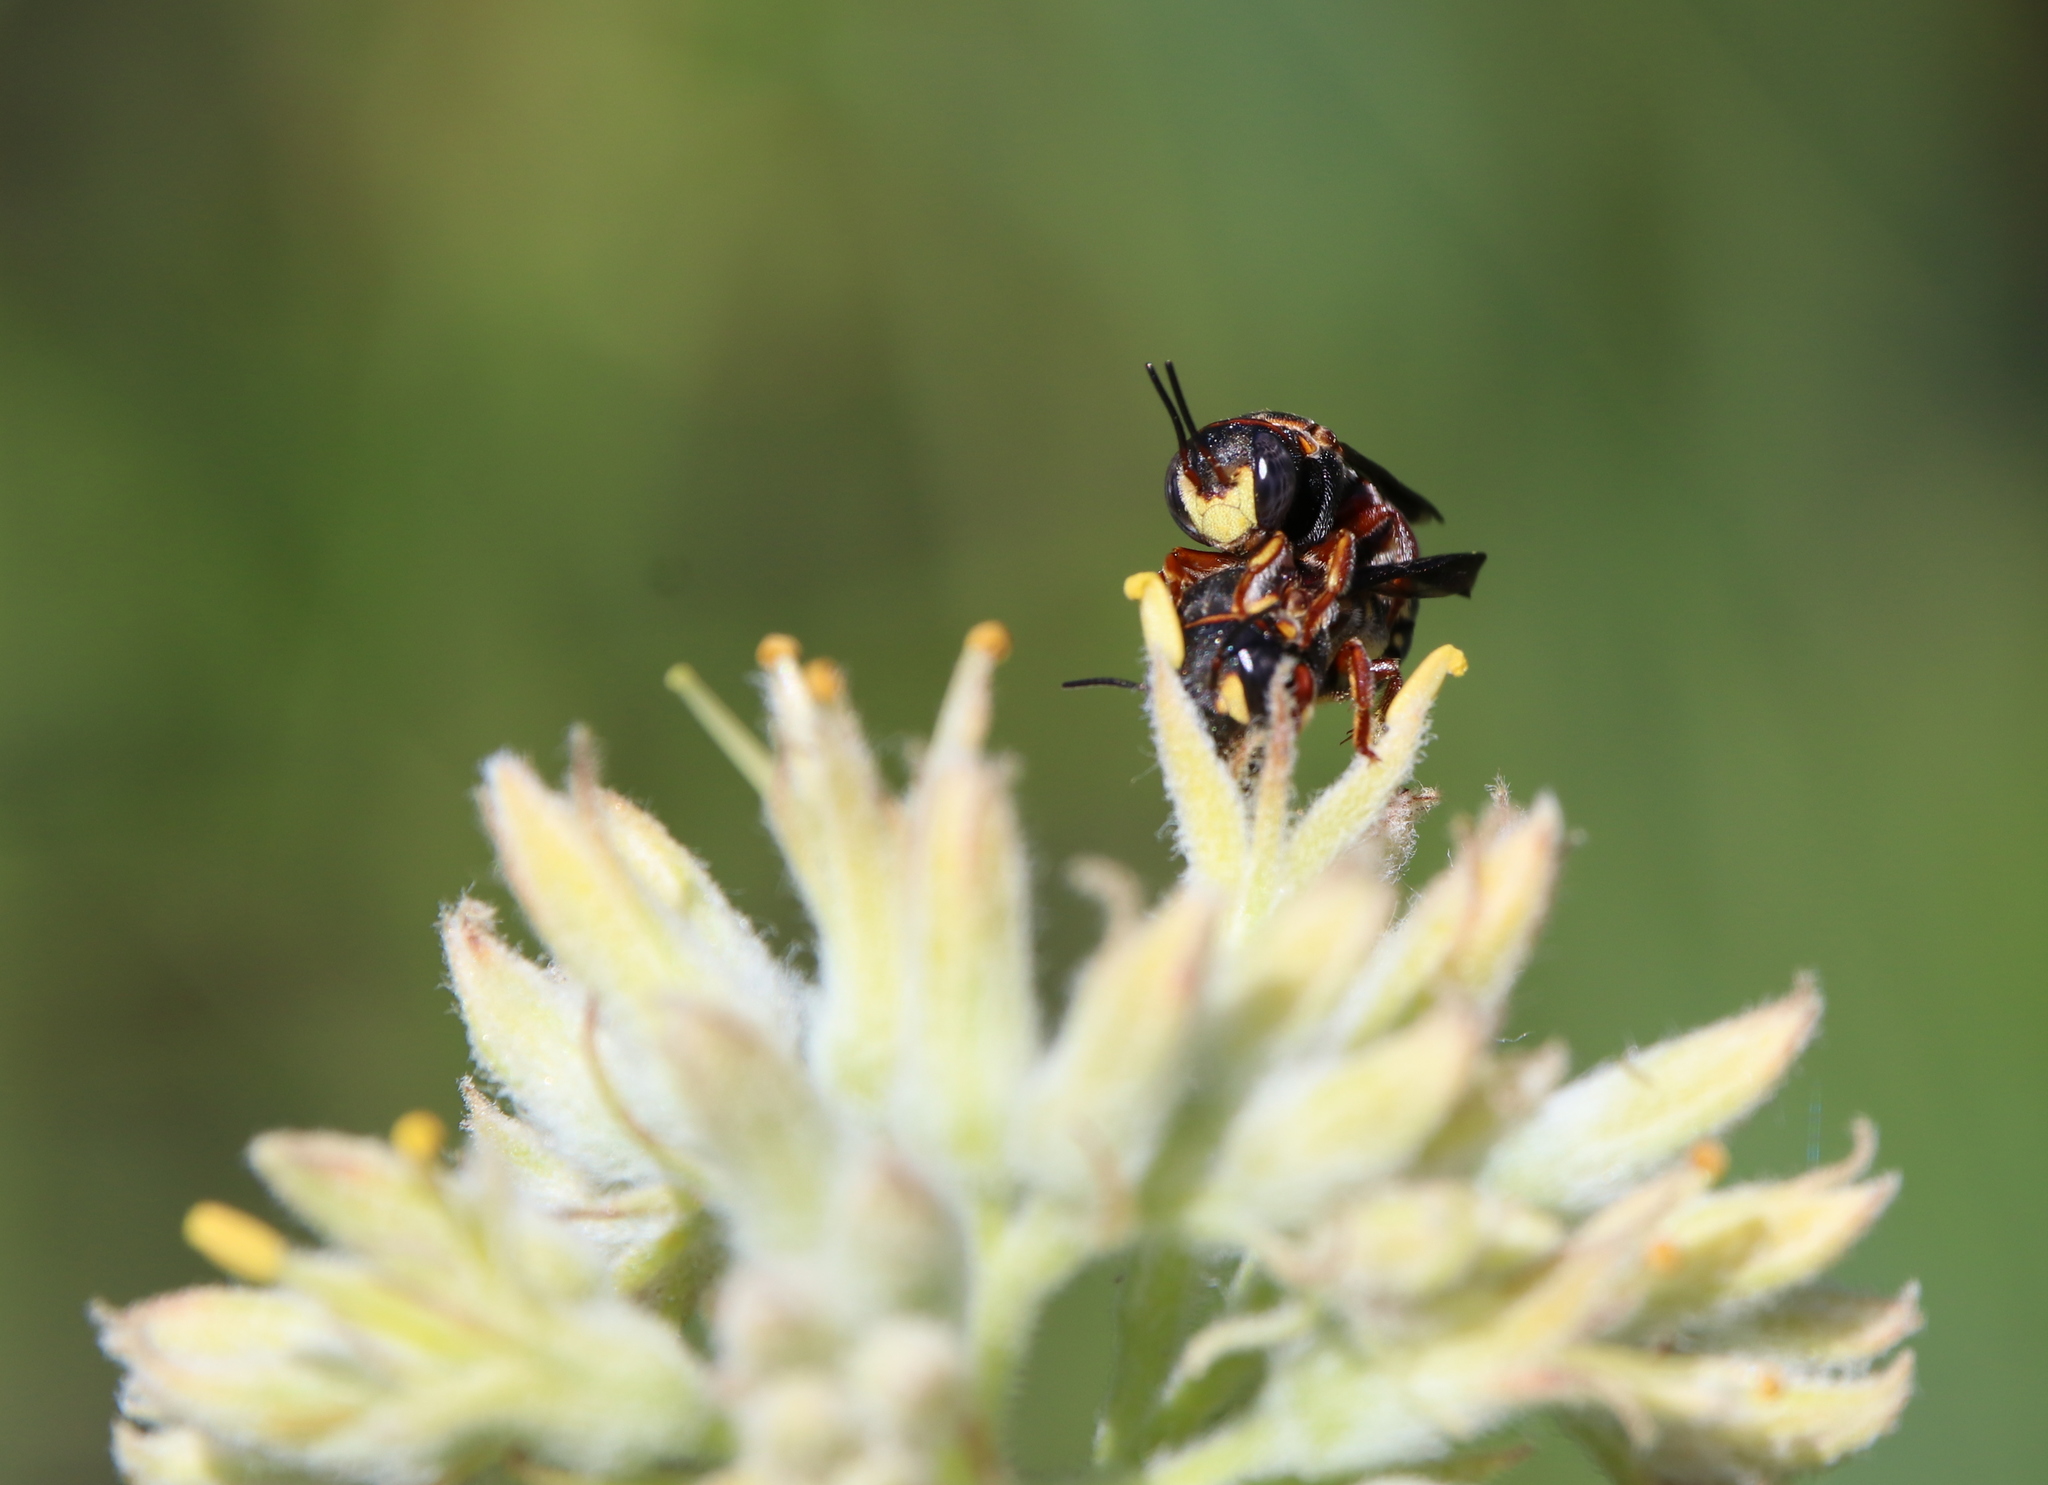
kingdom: Animalia
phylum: Arthropoda
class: Insecta
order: Hymenoptera
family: Megachilidae
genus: Anthidiellum
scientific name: Anthidiellum perplexum
